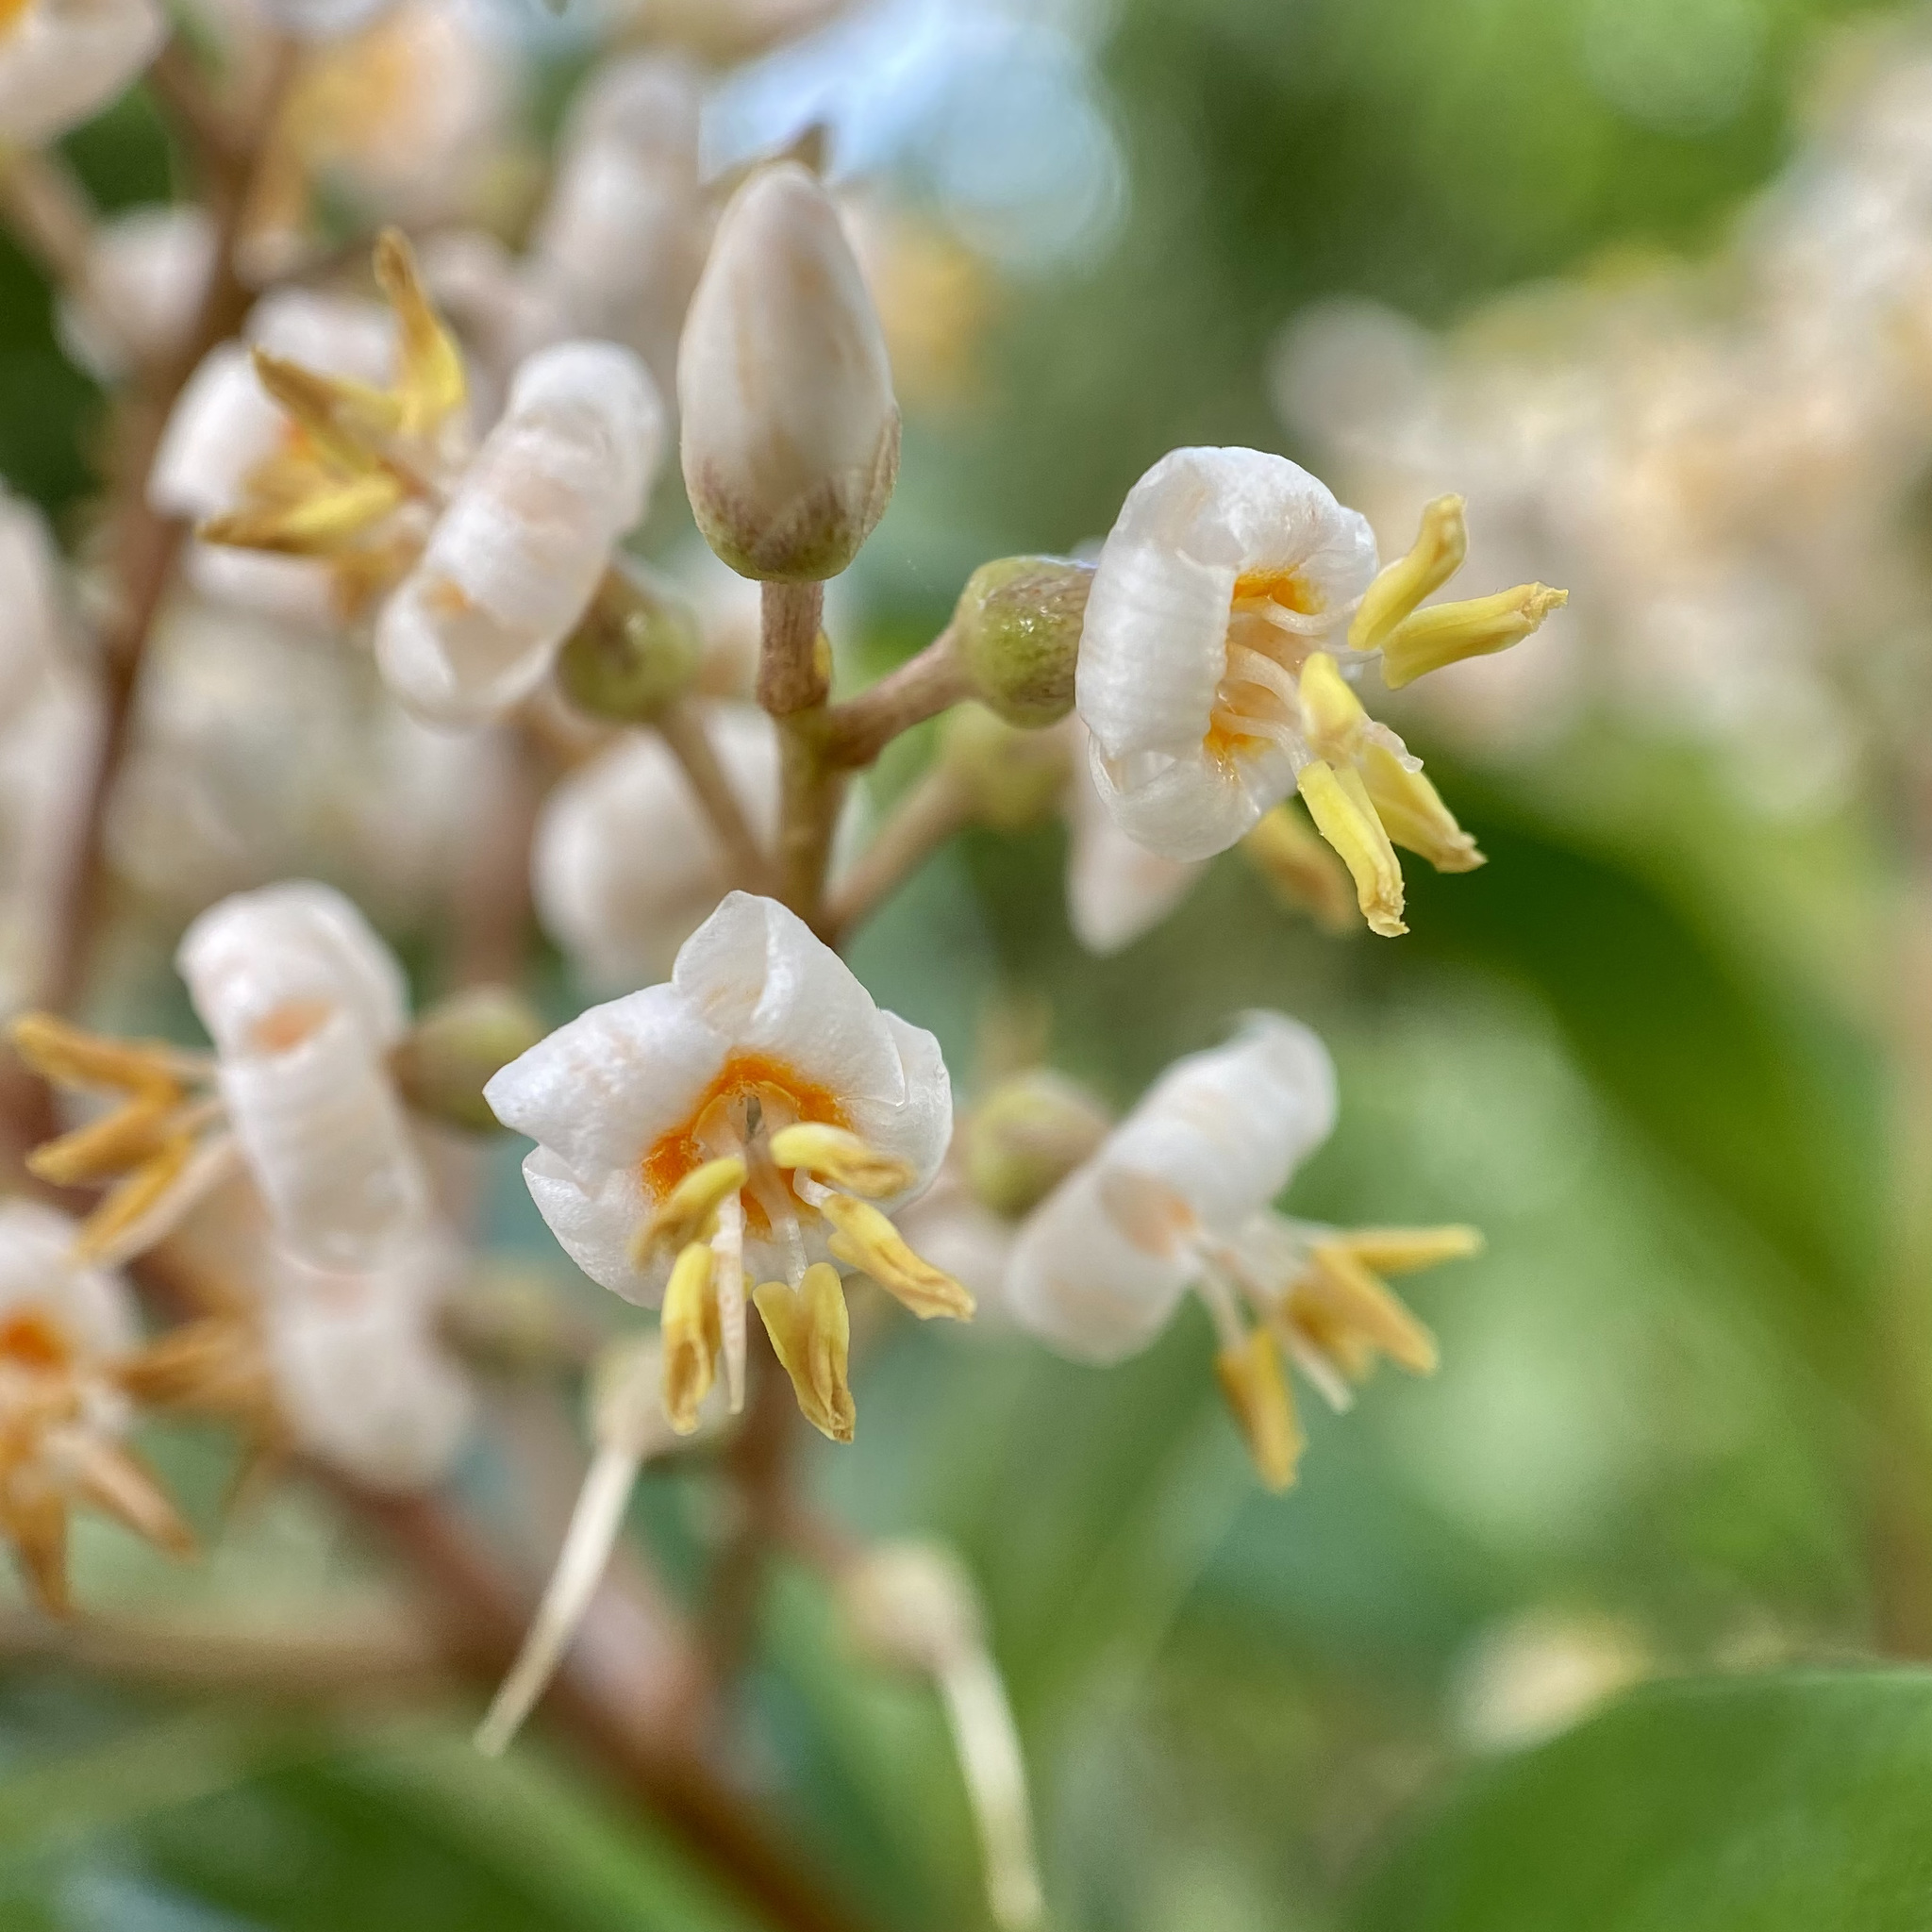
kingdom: Plantae
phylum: Tracheophyta
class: Magnoliopsida
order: Ericales
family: Primulaceae
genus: Ardisia
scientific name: Ardisia escallonioides
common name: Island marlberry
